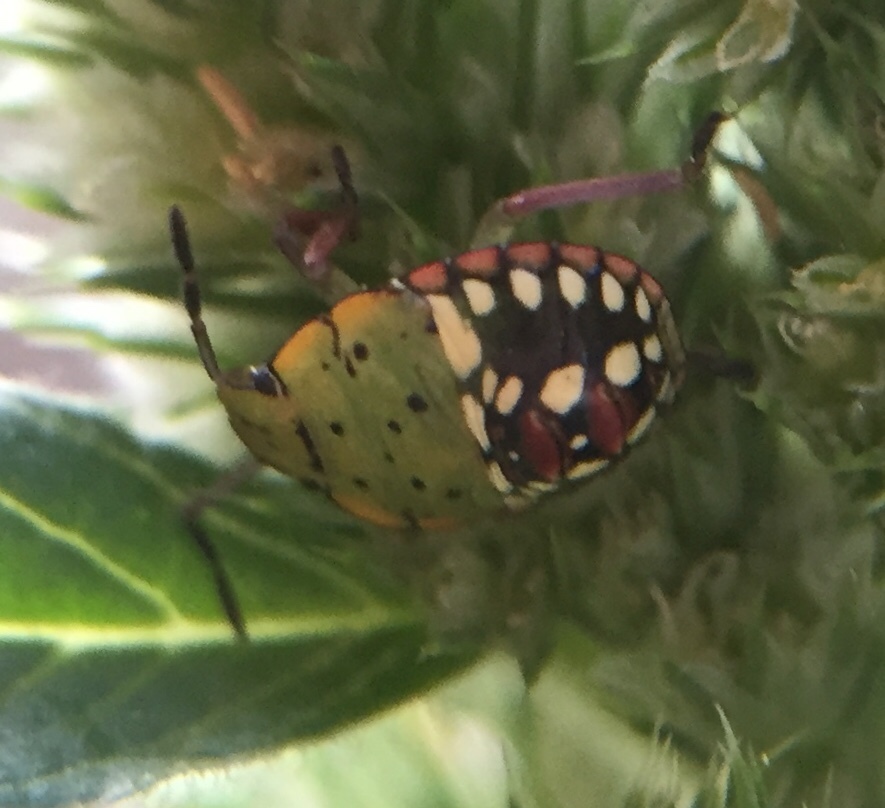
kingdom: Animalia
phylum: Arthropoda
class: Insecta
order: Hemiptera
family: Pentatomidae
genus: Nezara
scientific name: Nezara viridula
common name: Southern green stink bug
